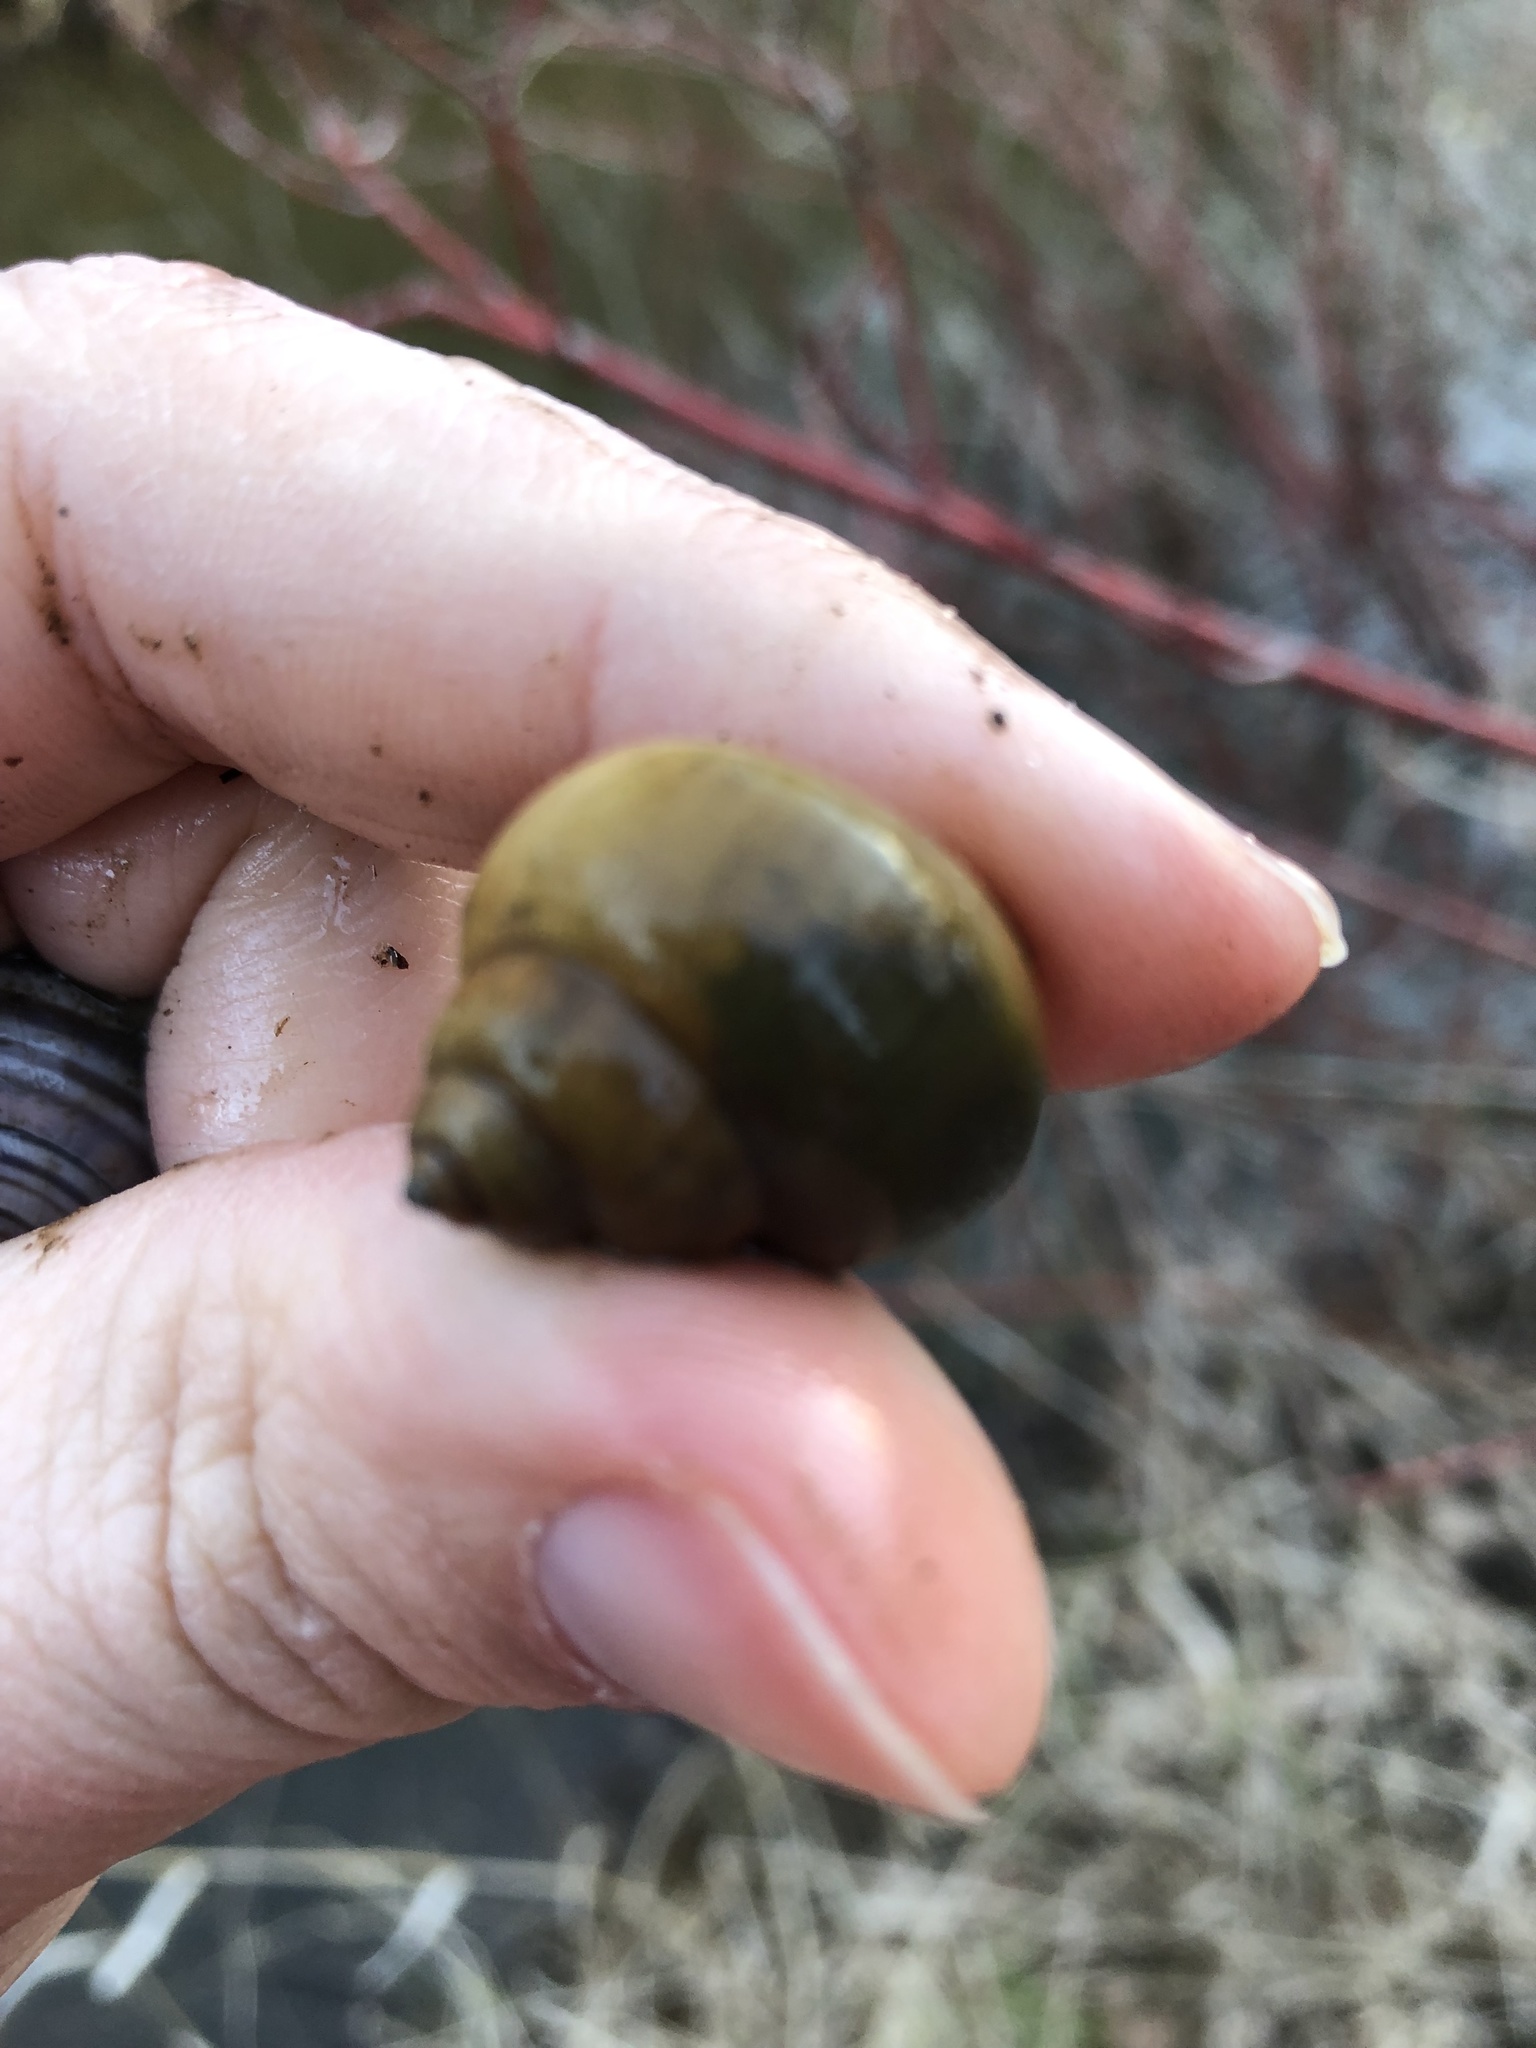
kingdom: Animalia
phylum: Mollusca
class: Gastropoda
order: Architaenioglossa
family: Viviparidae
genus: Cipangopaludina
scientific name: Cipangopaludina chinensis
